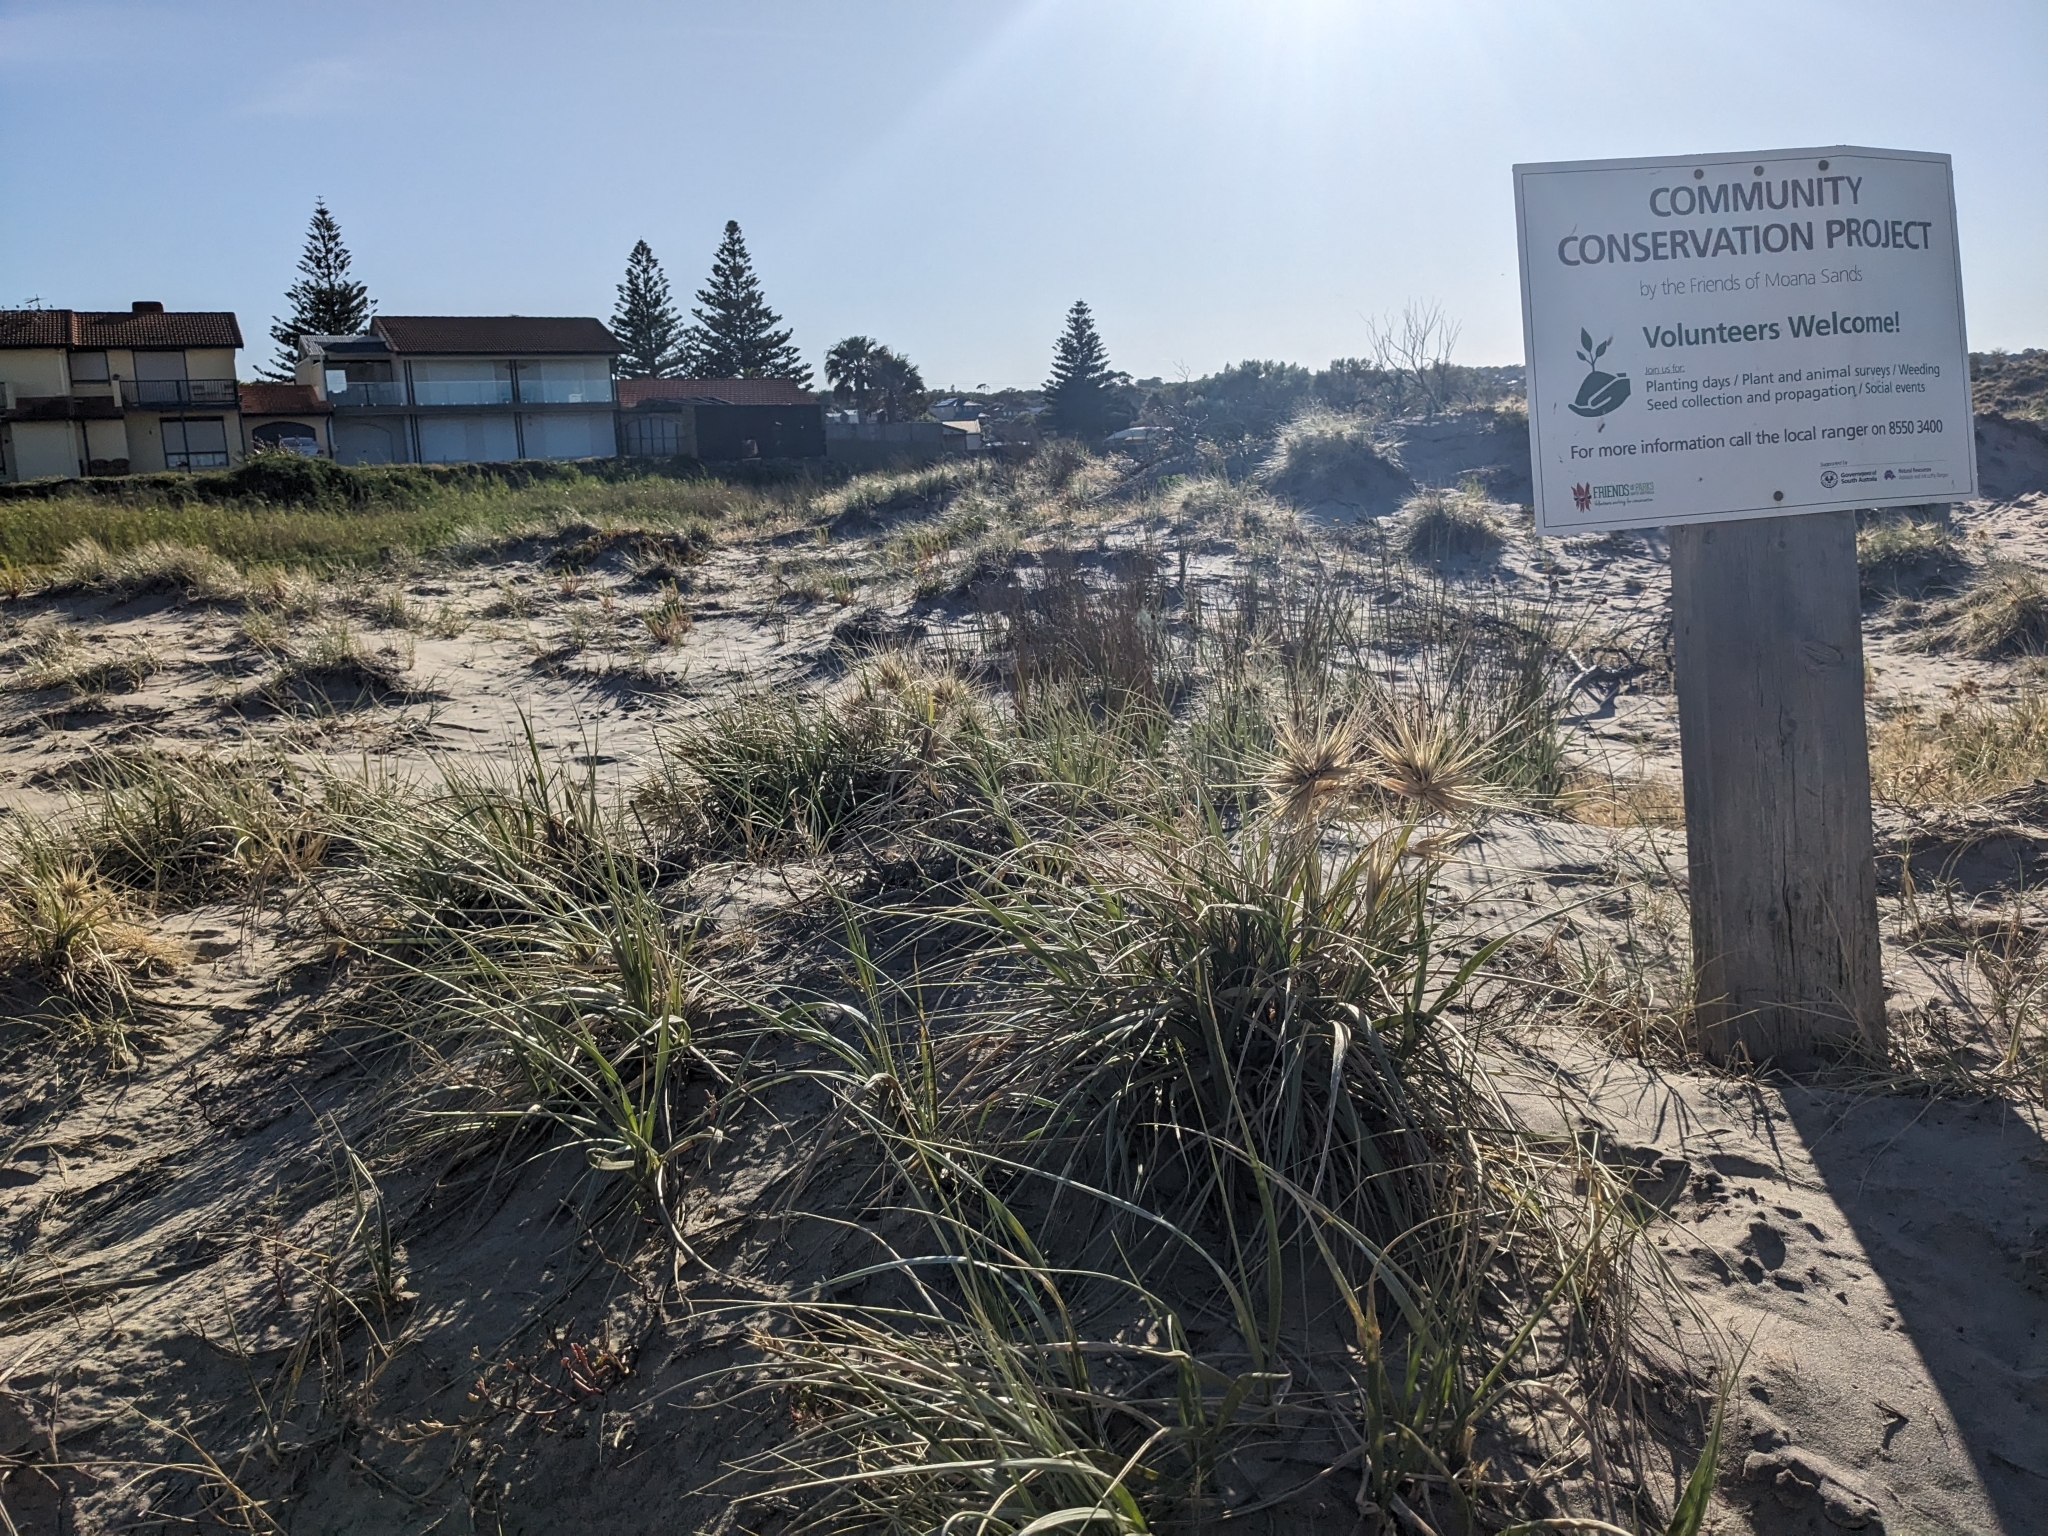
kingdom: Plantae
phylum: Tracheophyta
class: Liliopsida
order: Poales
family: Poaceae
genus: Spinifex
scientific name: Spinifex hirsutus
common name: Hairy spinifex
